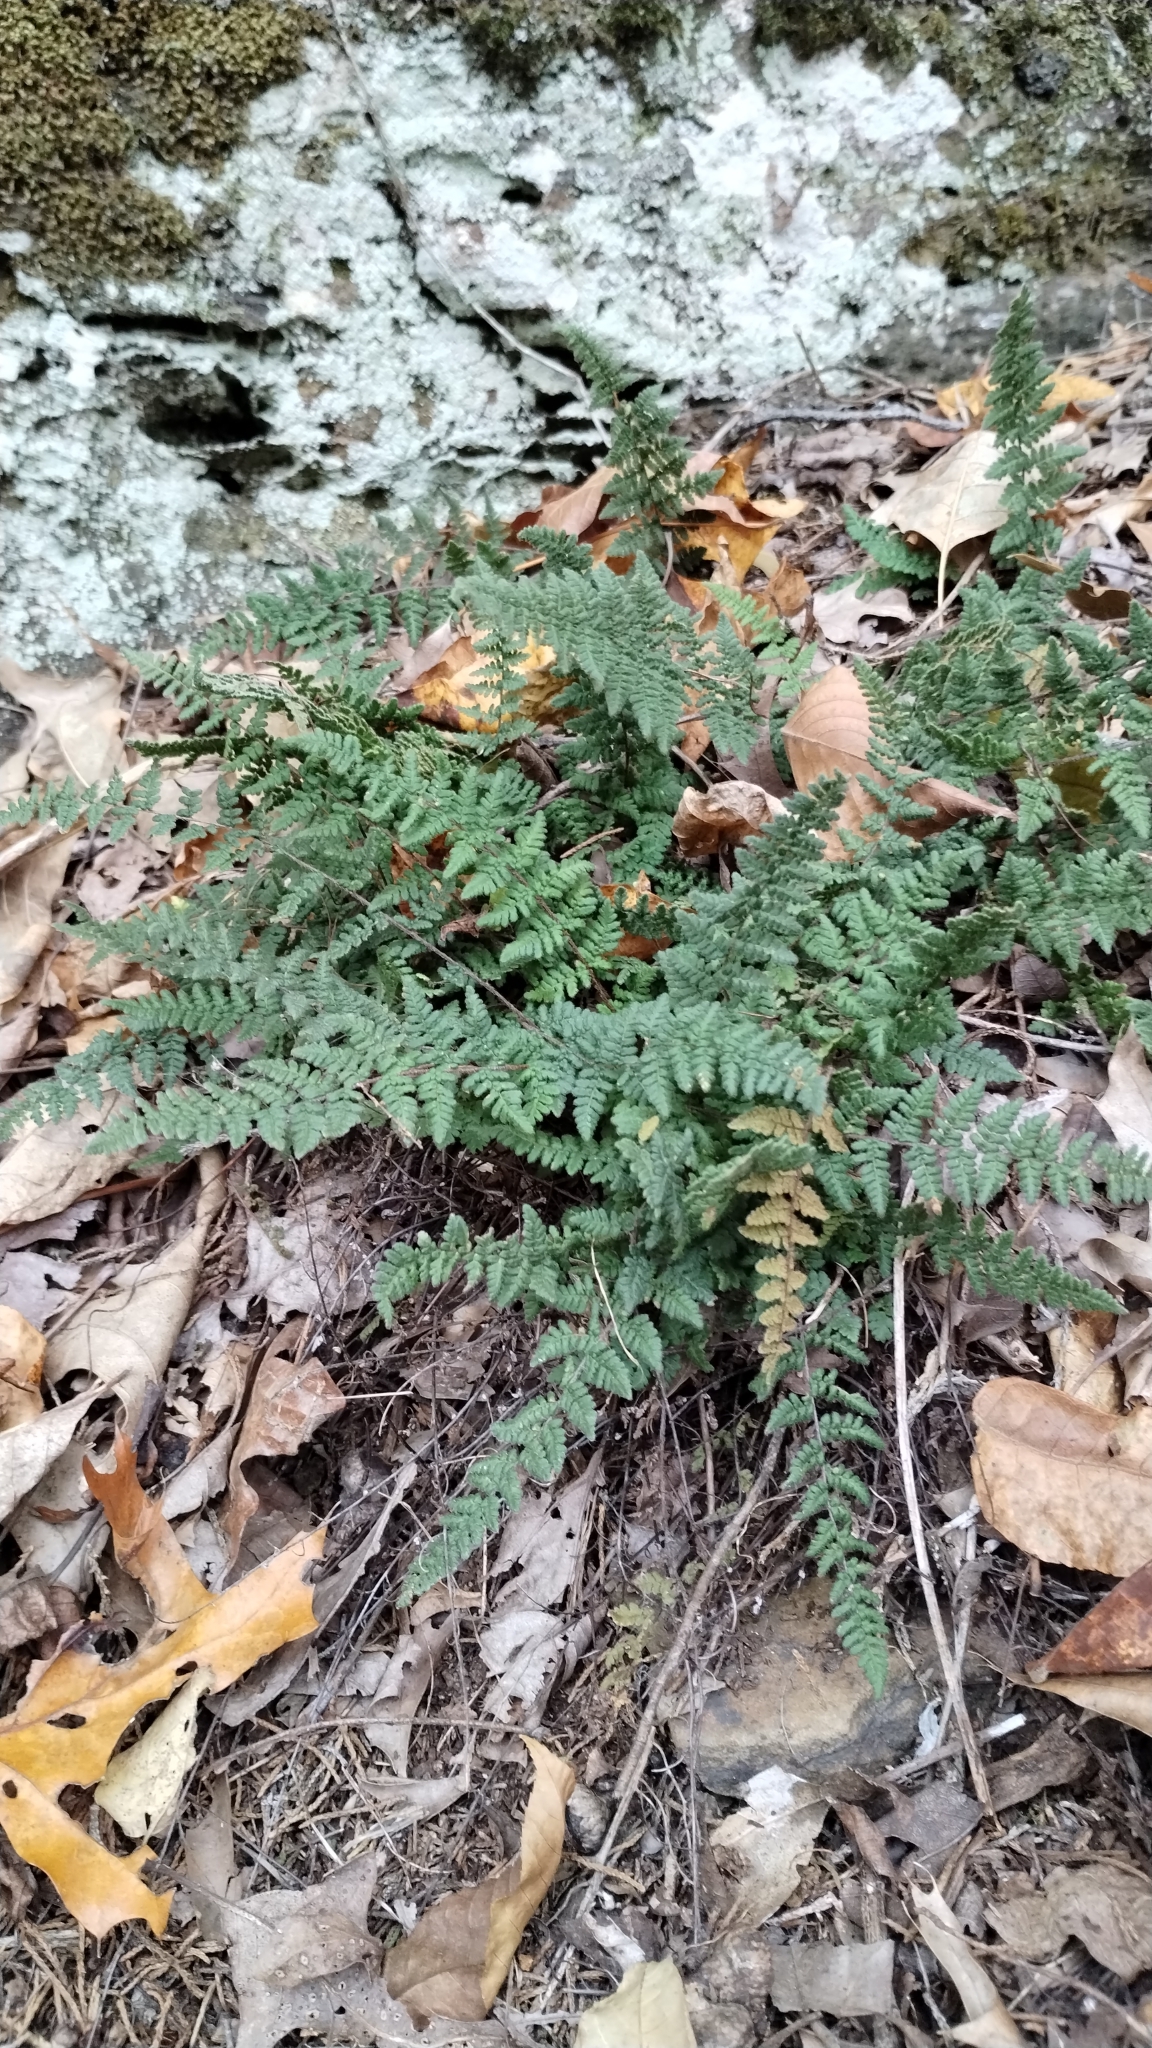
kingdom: Plantae
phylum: Tracheophyta
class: Polypodiopsida
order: Polypodiales
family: Pteridaceae
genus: Myriopteris
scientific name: Myriopteris tomentosa
